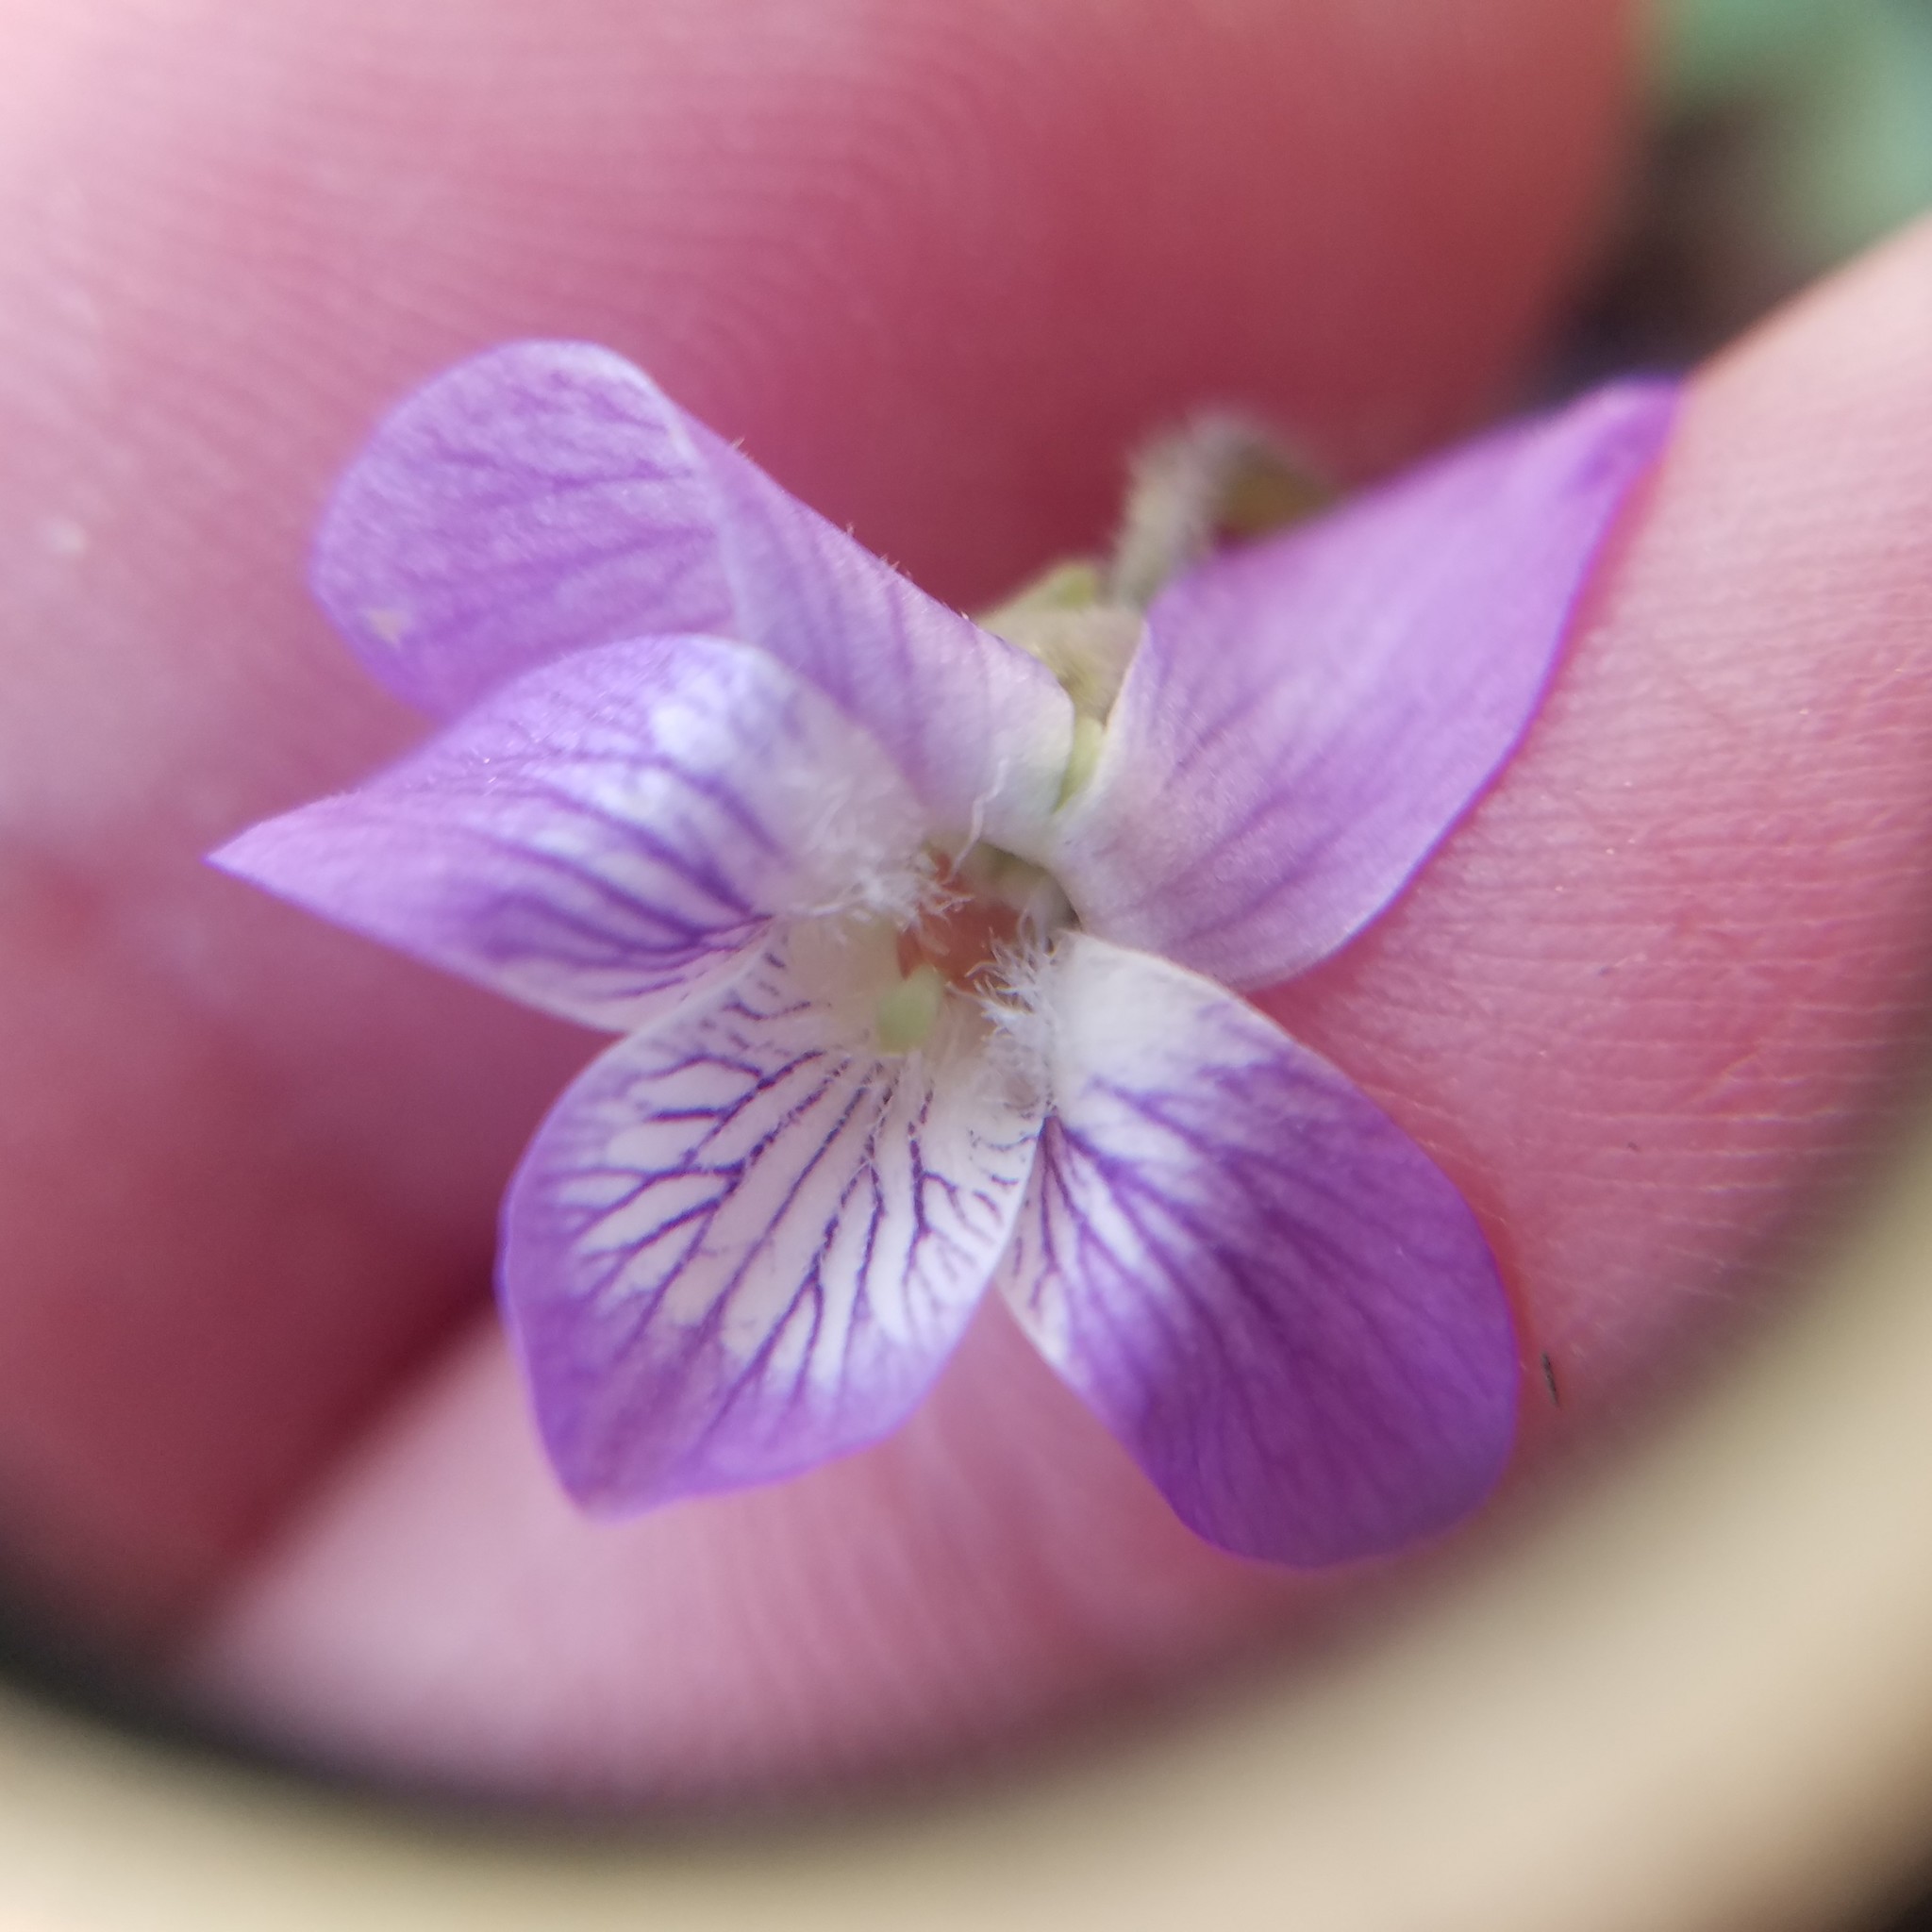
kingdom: Plantae
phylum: Tracheophyta
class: Magnoliopsida
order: Malpighiales
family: Violaceae
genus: Viola
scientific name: Viola hirsutula
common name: Southern wood violet
